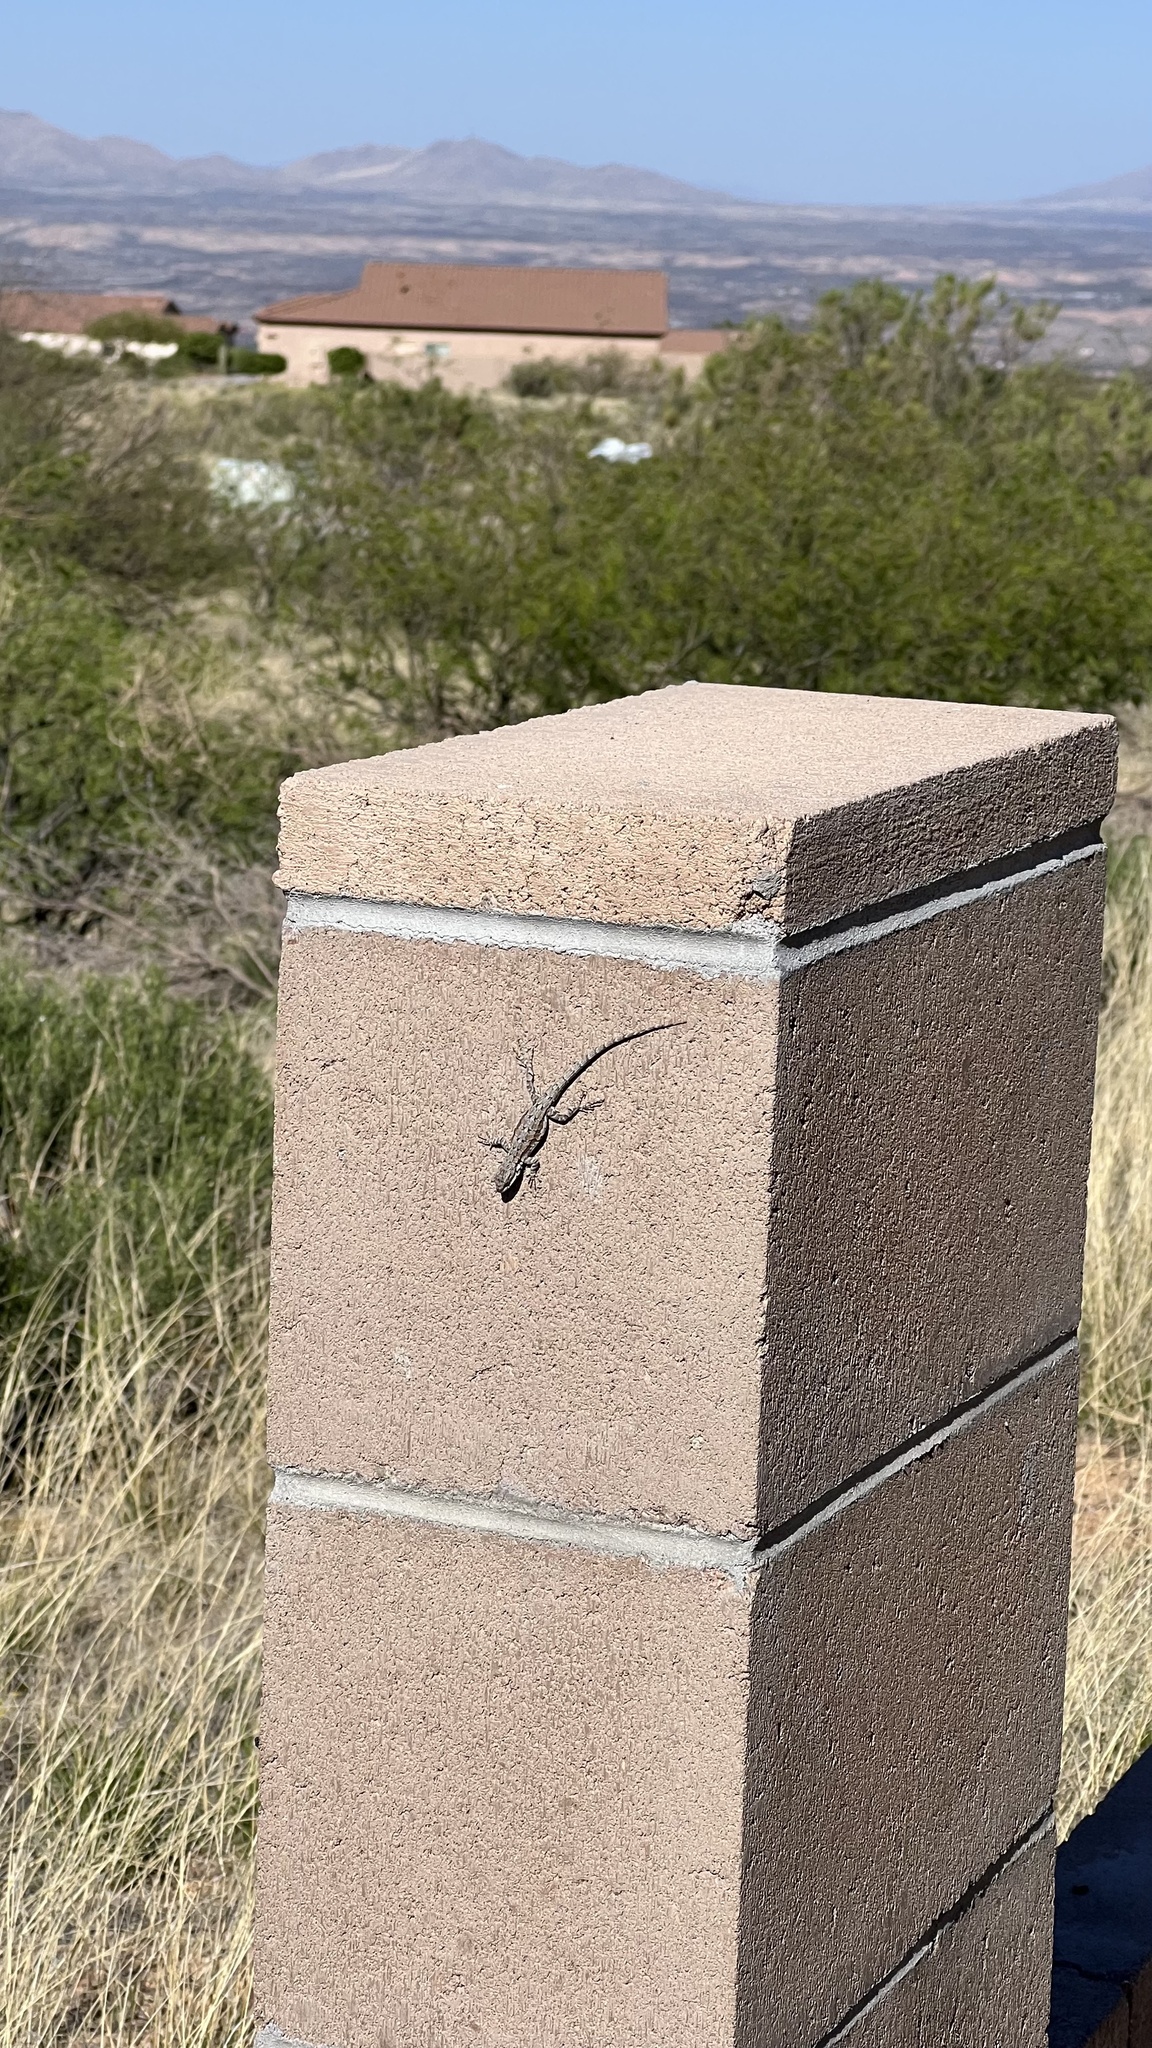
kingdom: Animalia
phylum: Chordata
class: Squamata
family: Phrynosomatidae
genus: Urosaurus
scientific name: Urosaurus ornatus
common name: Ornate tree lizard
